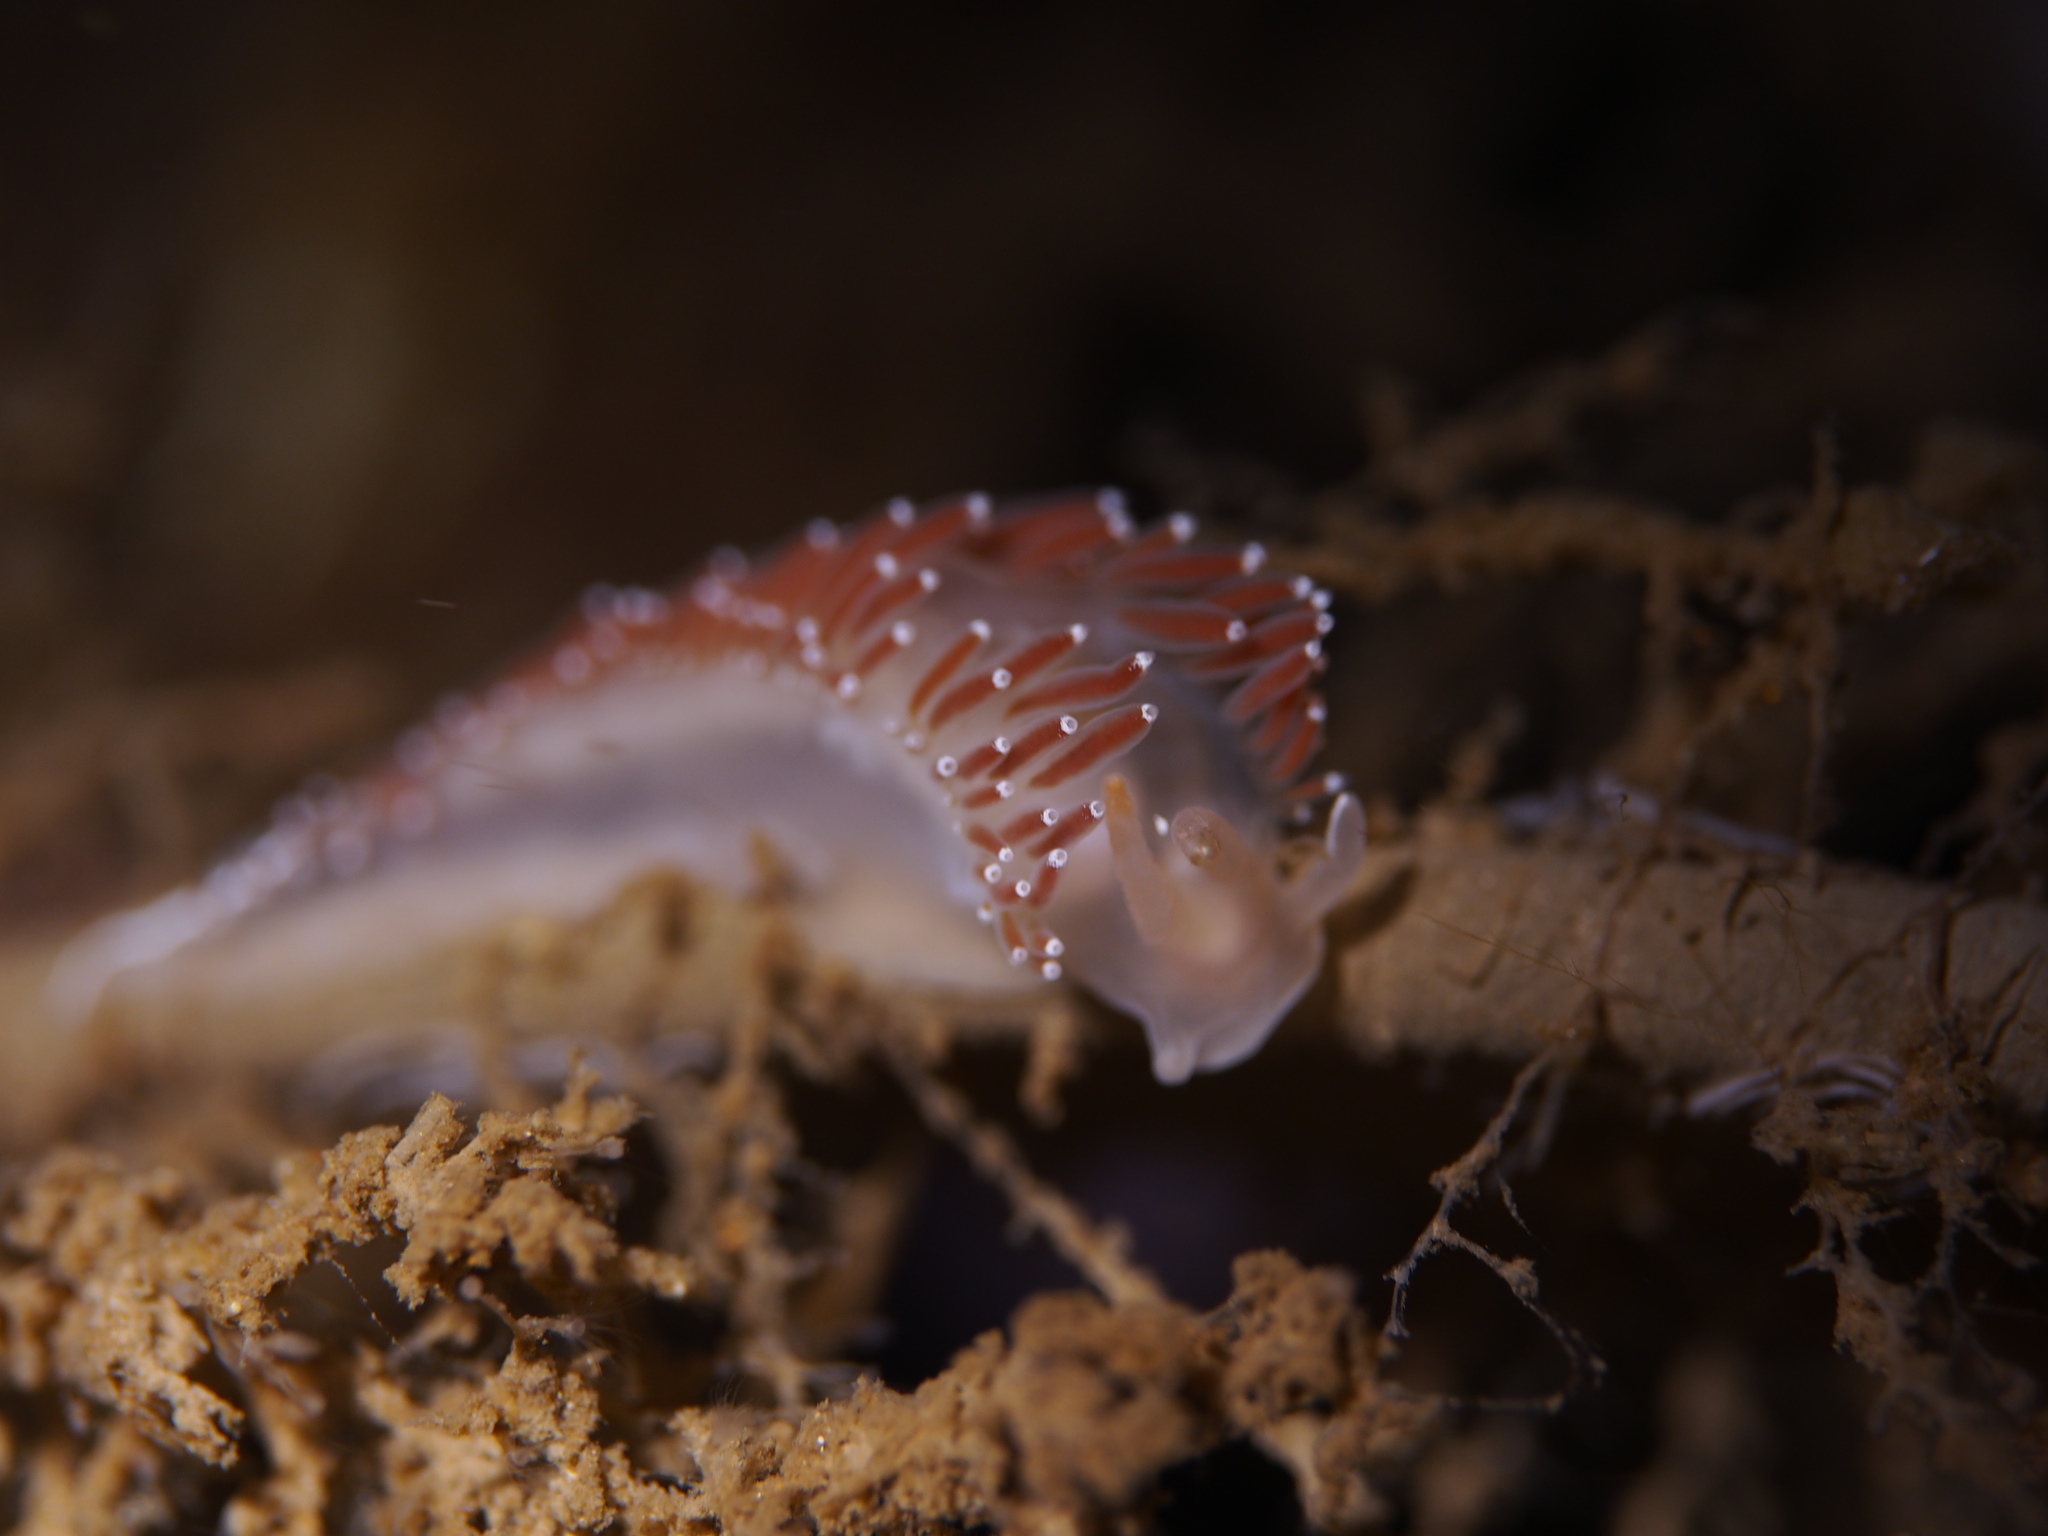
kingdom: Animalia
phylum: Mollusca
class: Gastropoda
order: Nudibranchia
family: Coryphellidae
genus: Coryphella
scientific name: Coryphella verrucosa
